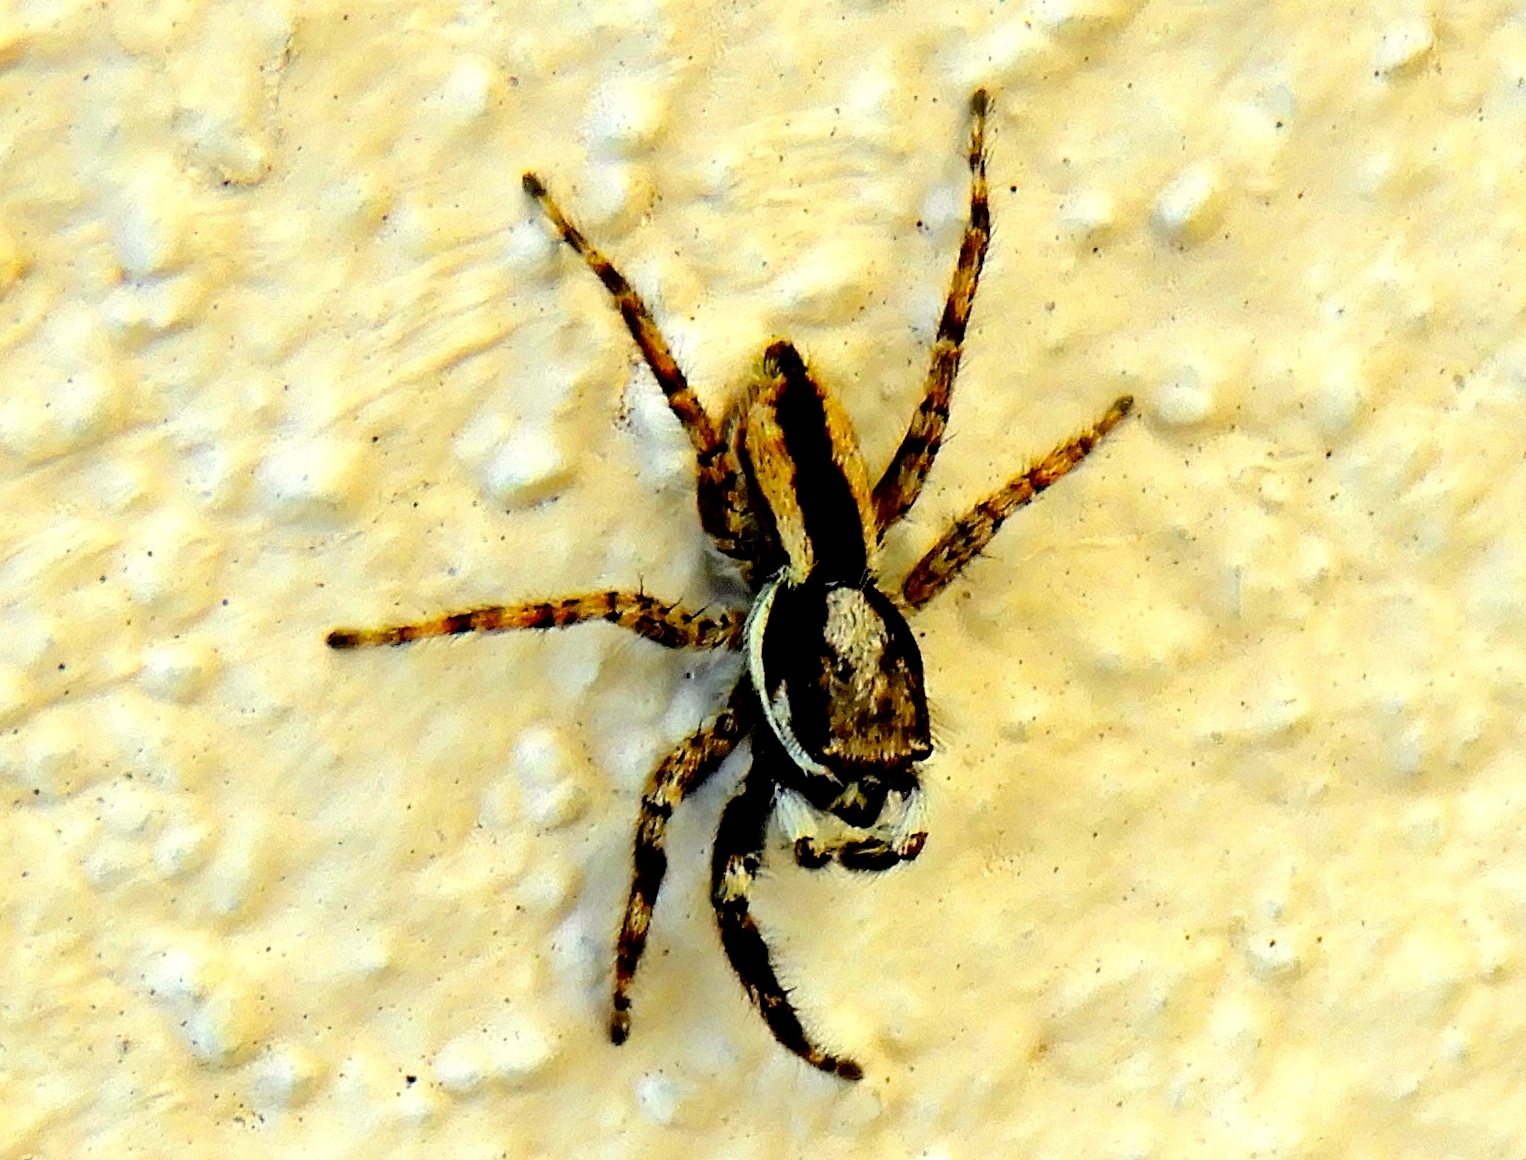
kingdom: Animalia
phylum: Arthropoda
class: Arachnida
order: Araneae
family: Salticidae
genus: Menemerus
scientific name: Menemerus bivittatus
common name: Gray wall jumper
